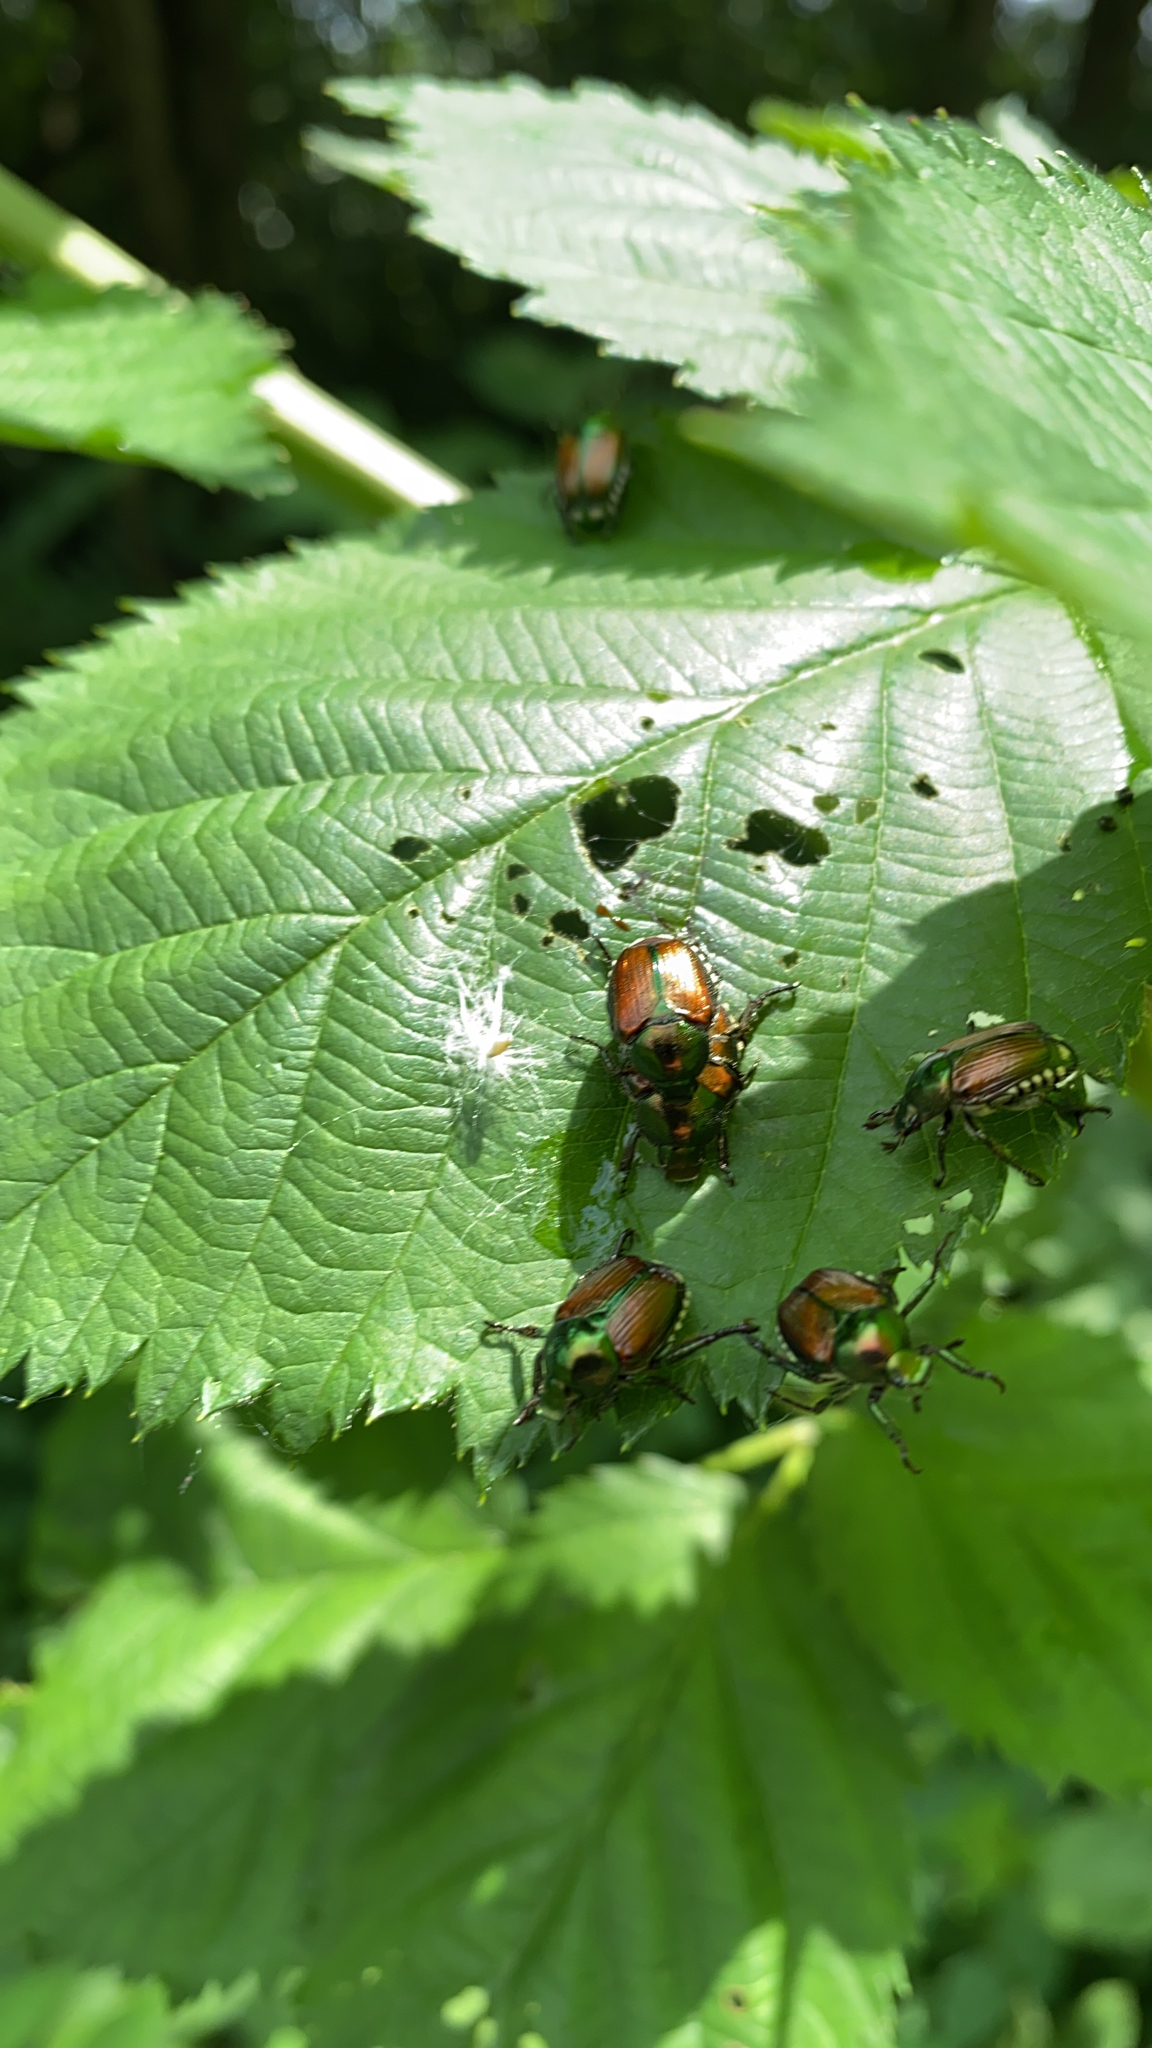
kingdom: Animalia
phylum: Arthropoda
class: Insecta
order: Coleoptera
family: Scarabaeidae
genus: Popillia
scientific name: Popillia japonica
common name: Japanese beetle
